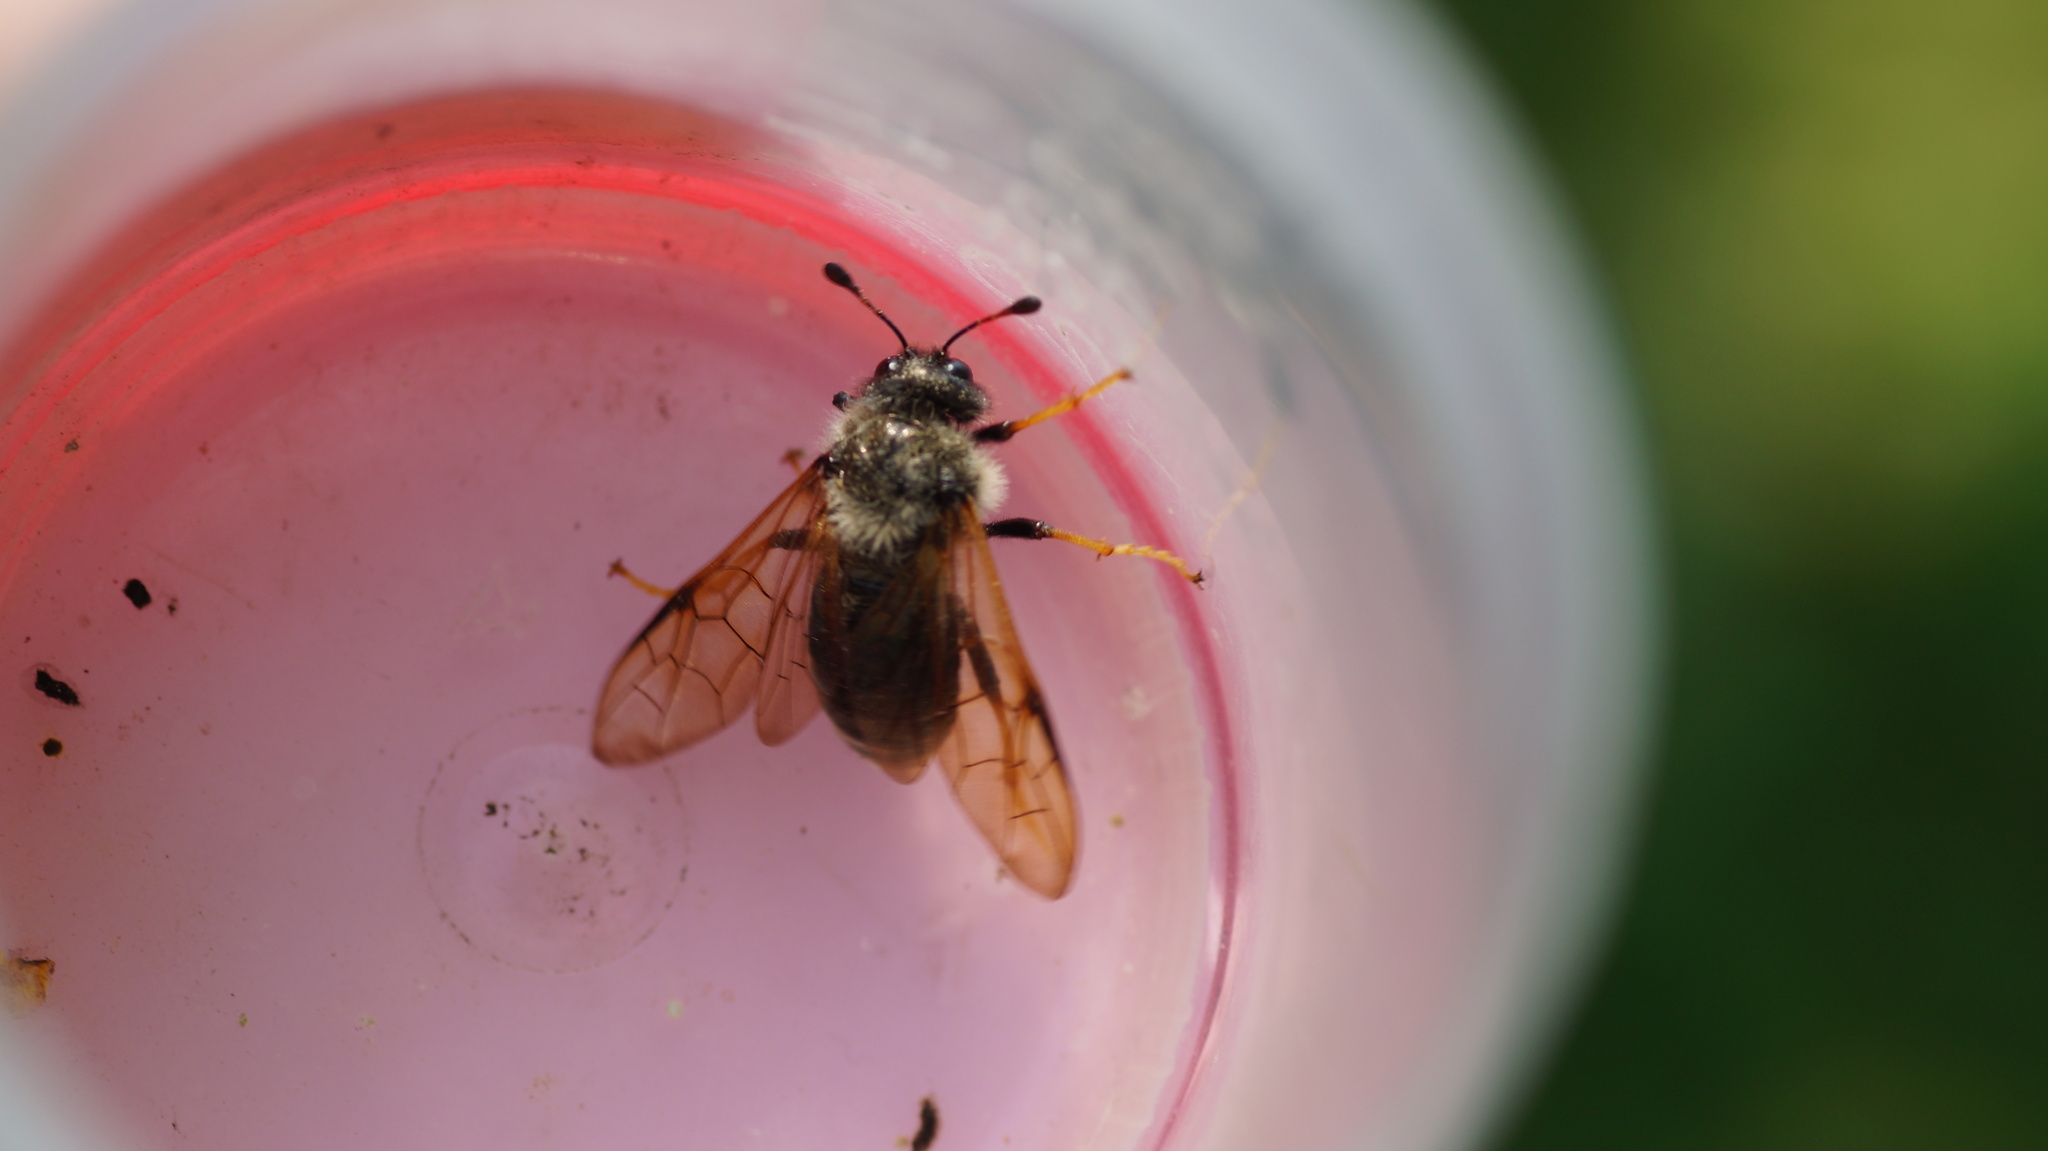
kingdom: Animalia
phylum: Arthropoda
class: Insecta
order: Hymenoptera
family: Cimbicidae
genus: Trichiosoma
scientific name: Trichiosoma
